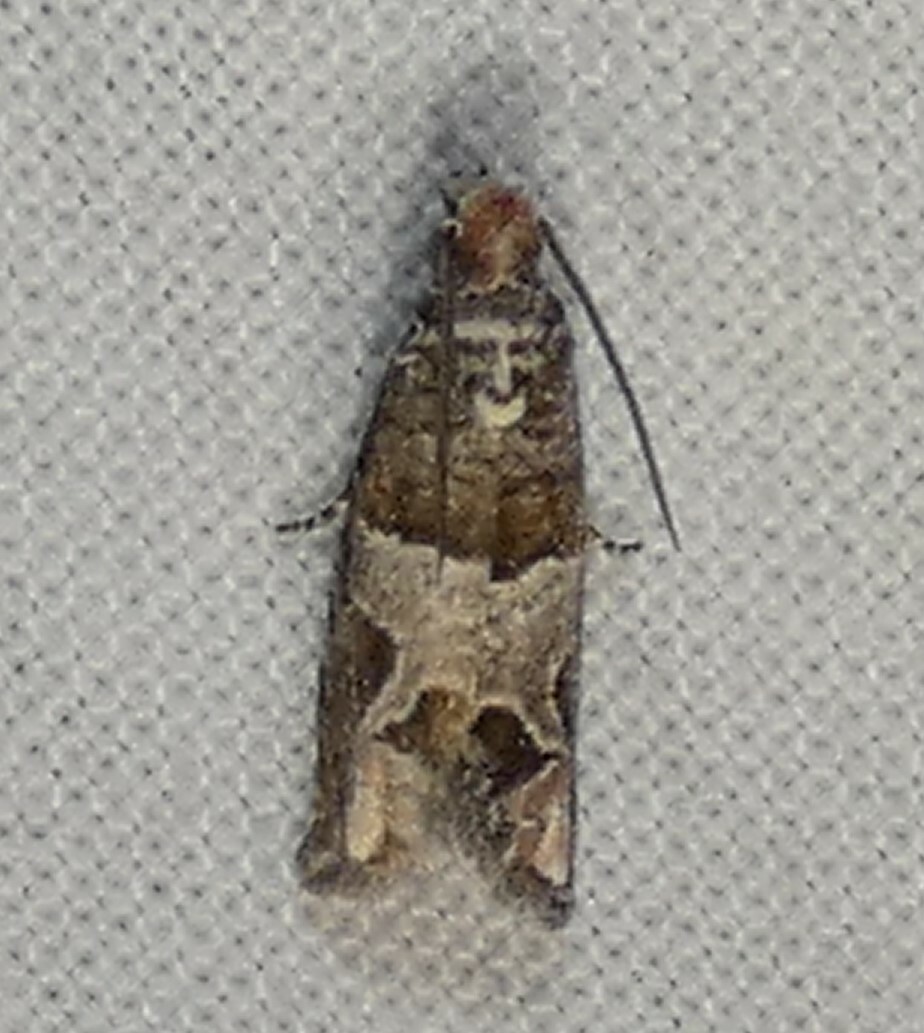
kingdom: Animalia
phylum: Arthropoda
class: Insecta
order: Lepidoptera
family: Tortricidae
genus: Sonia
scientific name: Sonia constrictana
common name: Constricted sonia moth
